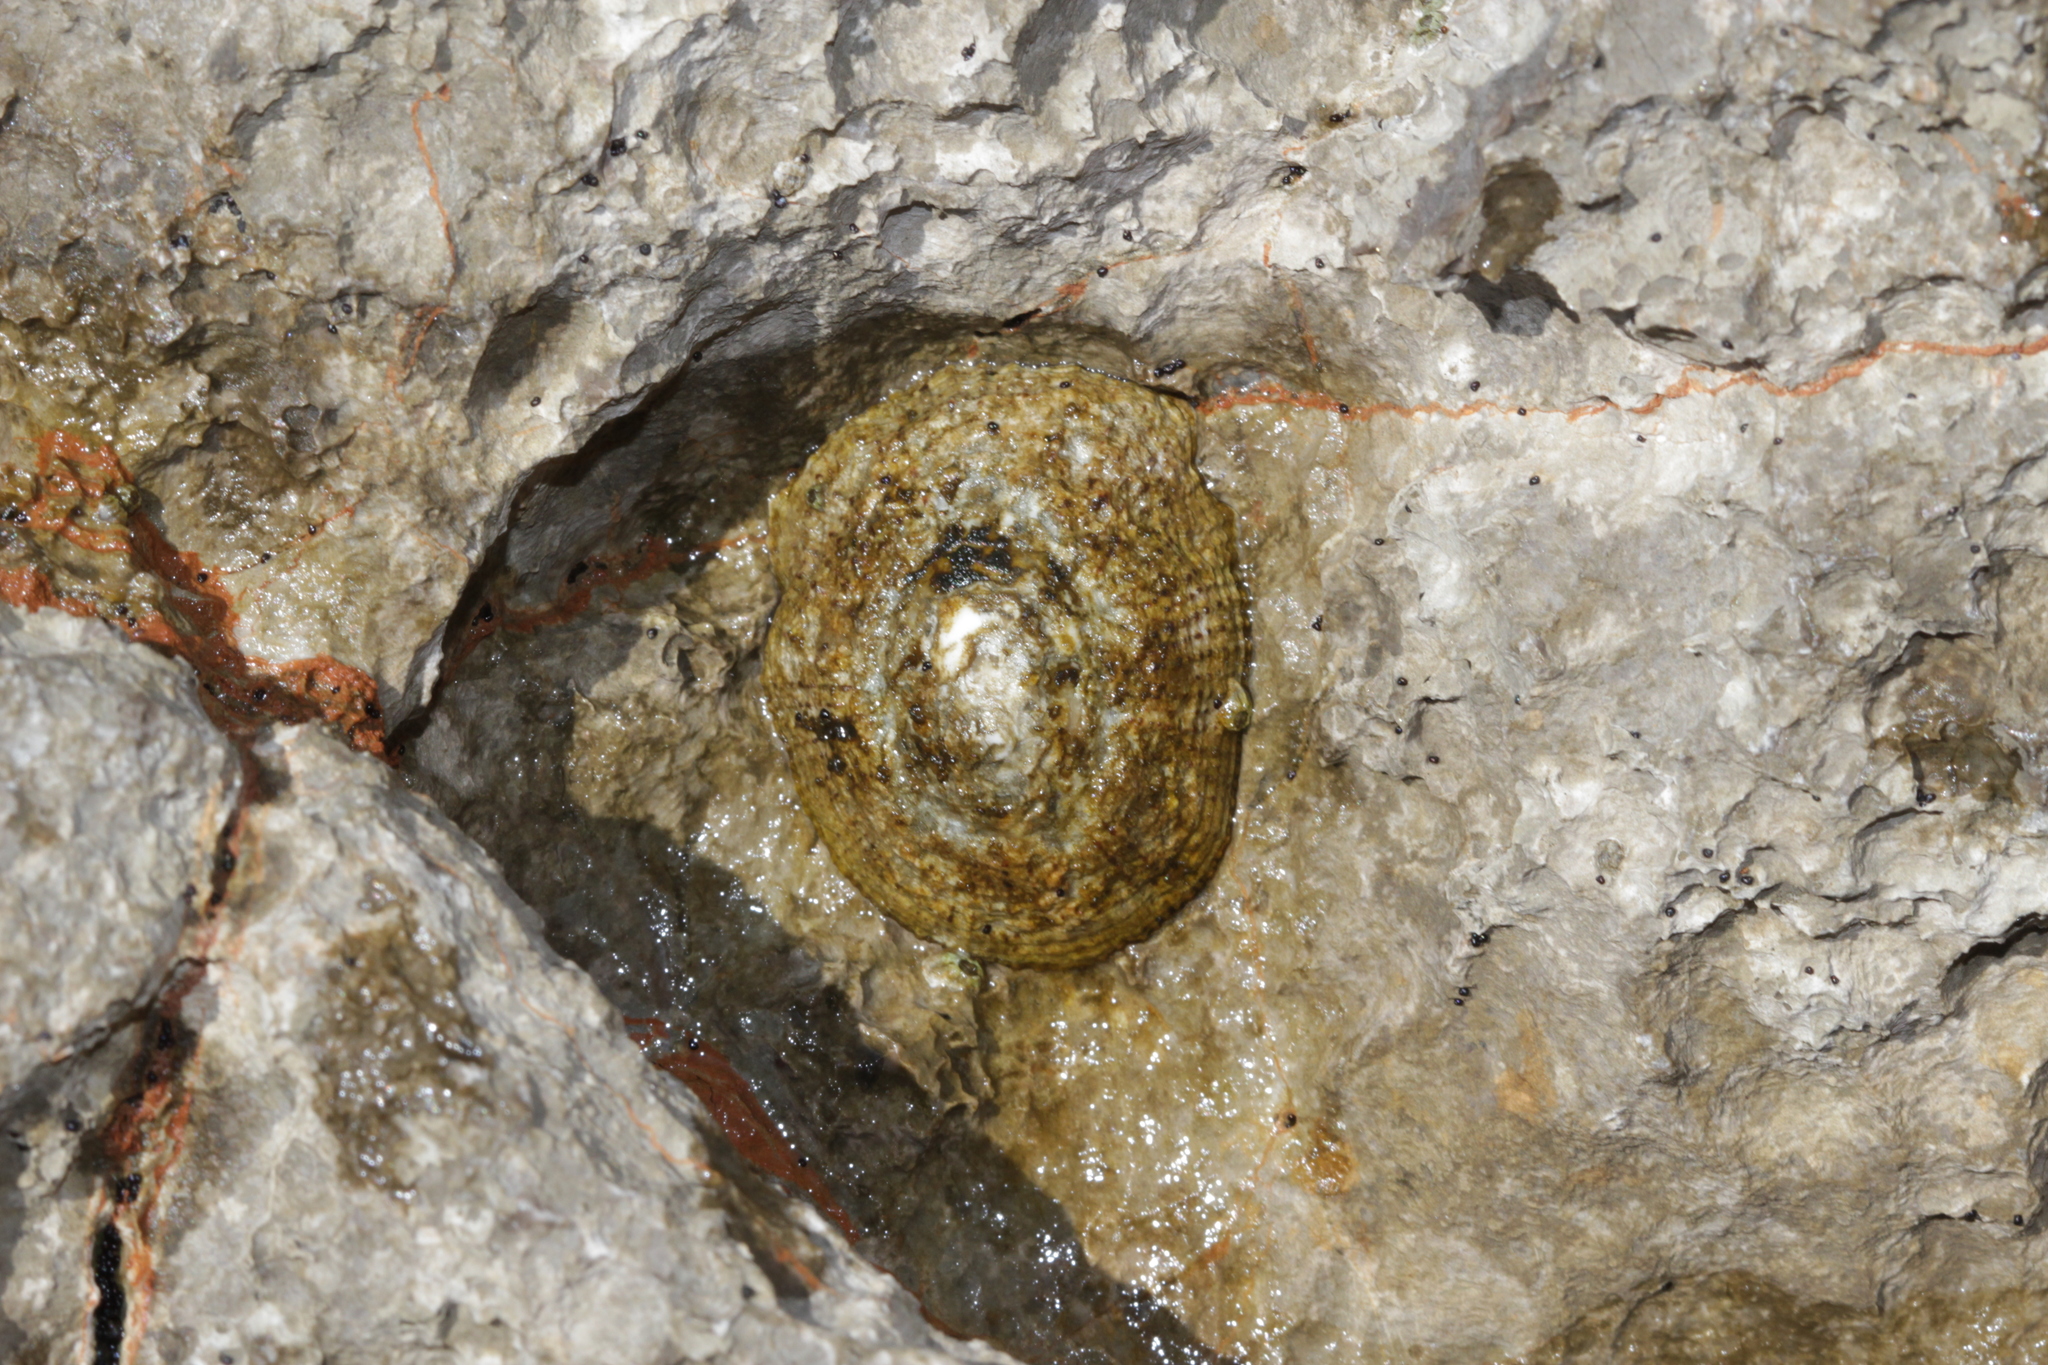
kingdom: Animalia
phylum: Mollusca
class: Gastropoda
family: Patellidae
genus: Patella
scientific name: Patella rustica
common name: Lusitanian limpet
